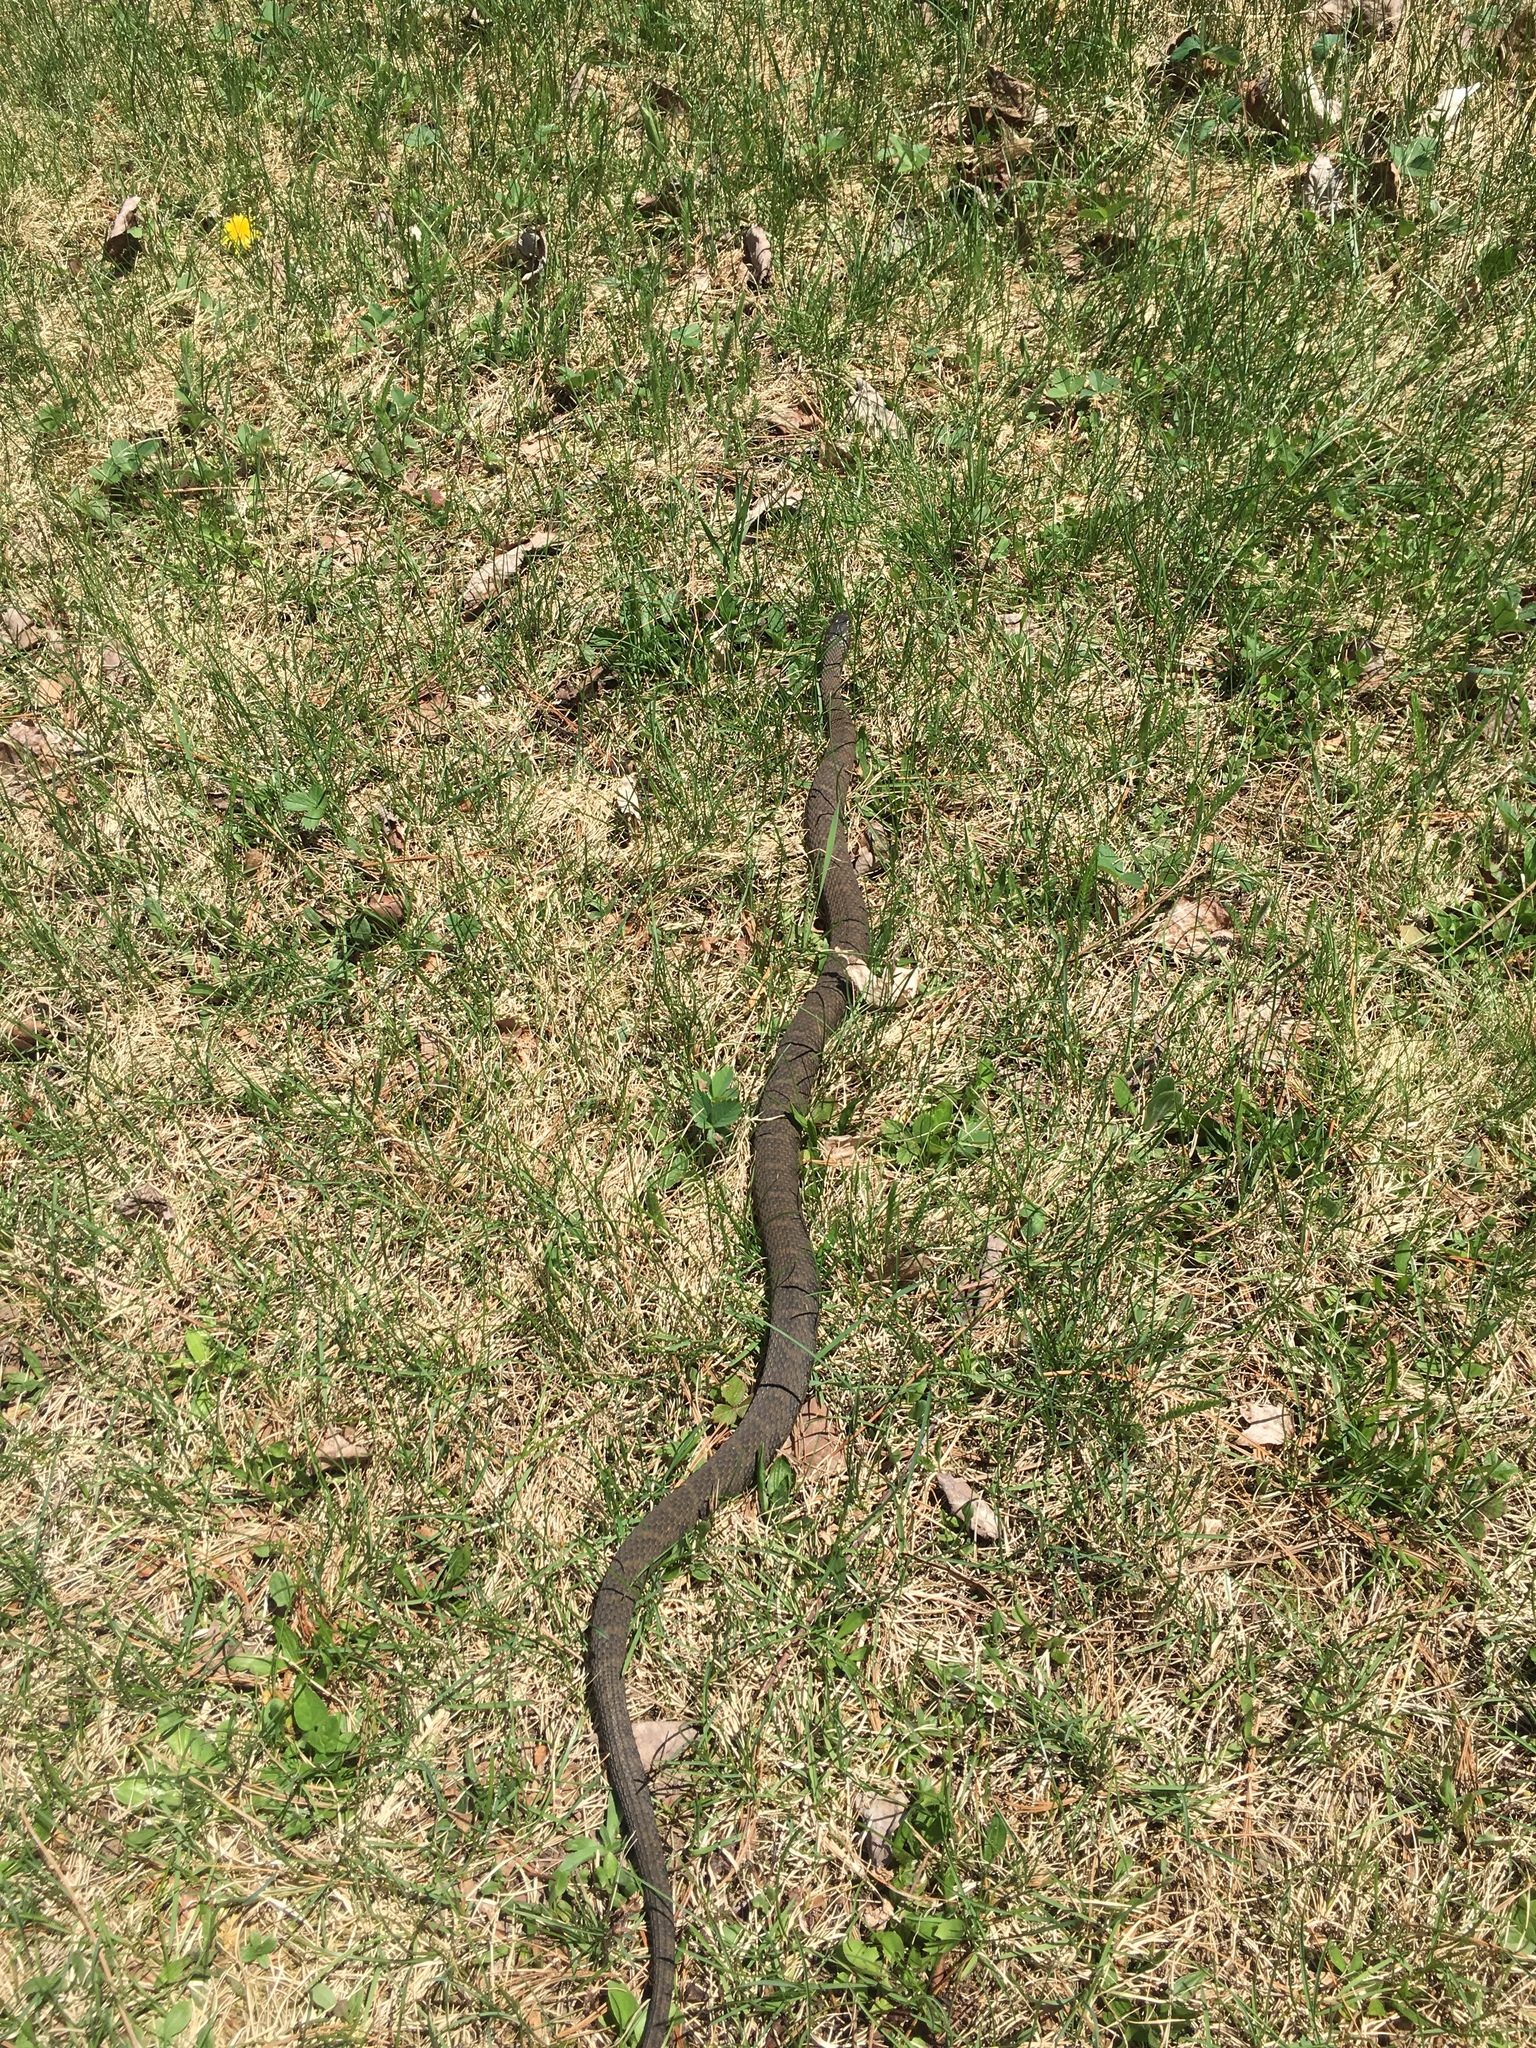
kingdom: Animalia
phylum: Chordata
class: Squamata
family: Colubridae
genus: Nerodia
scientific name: Nerodia sipedon
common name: Northern water snake
